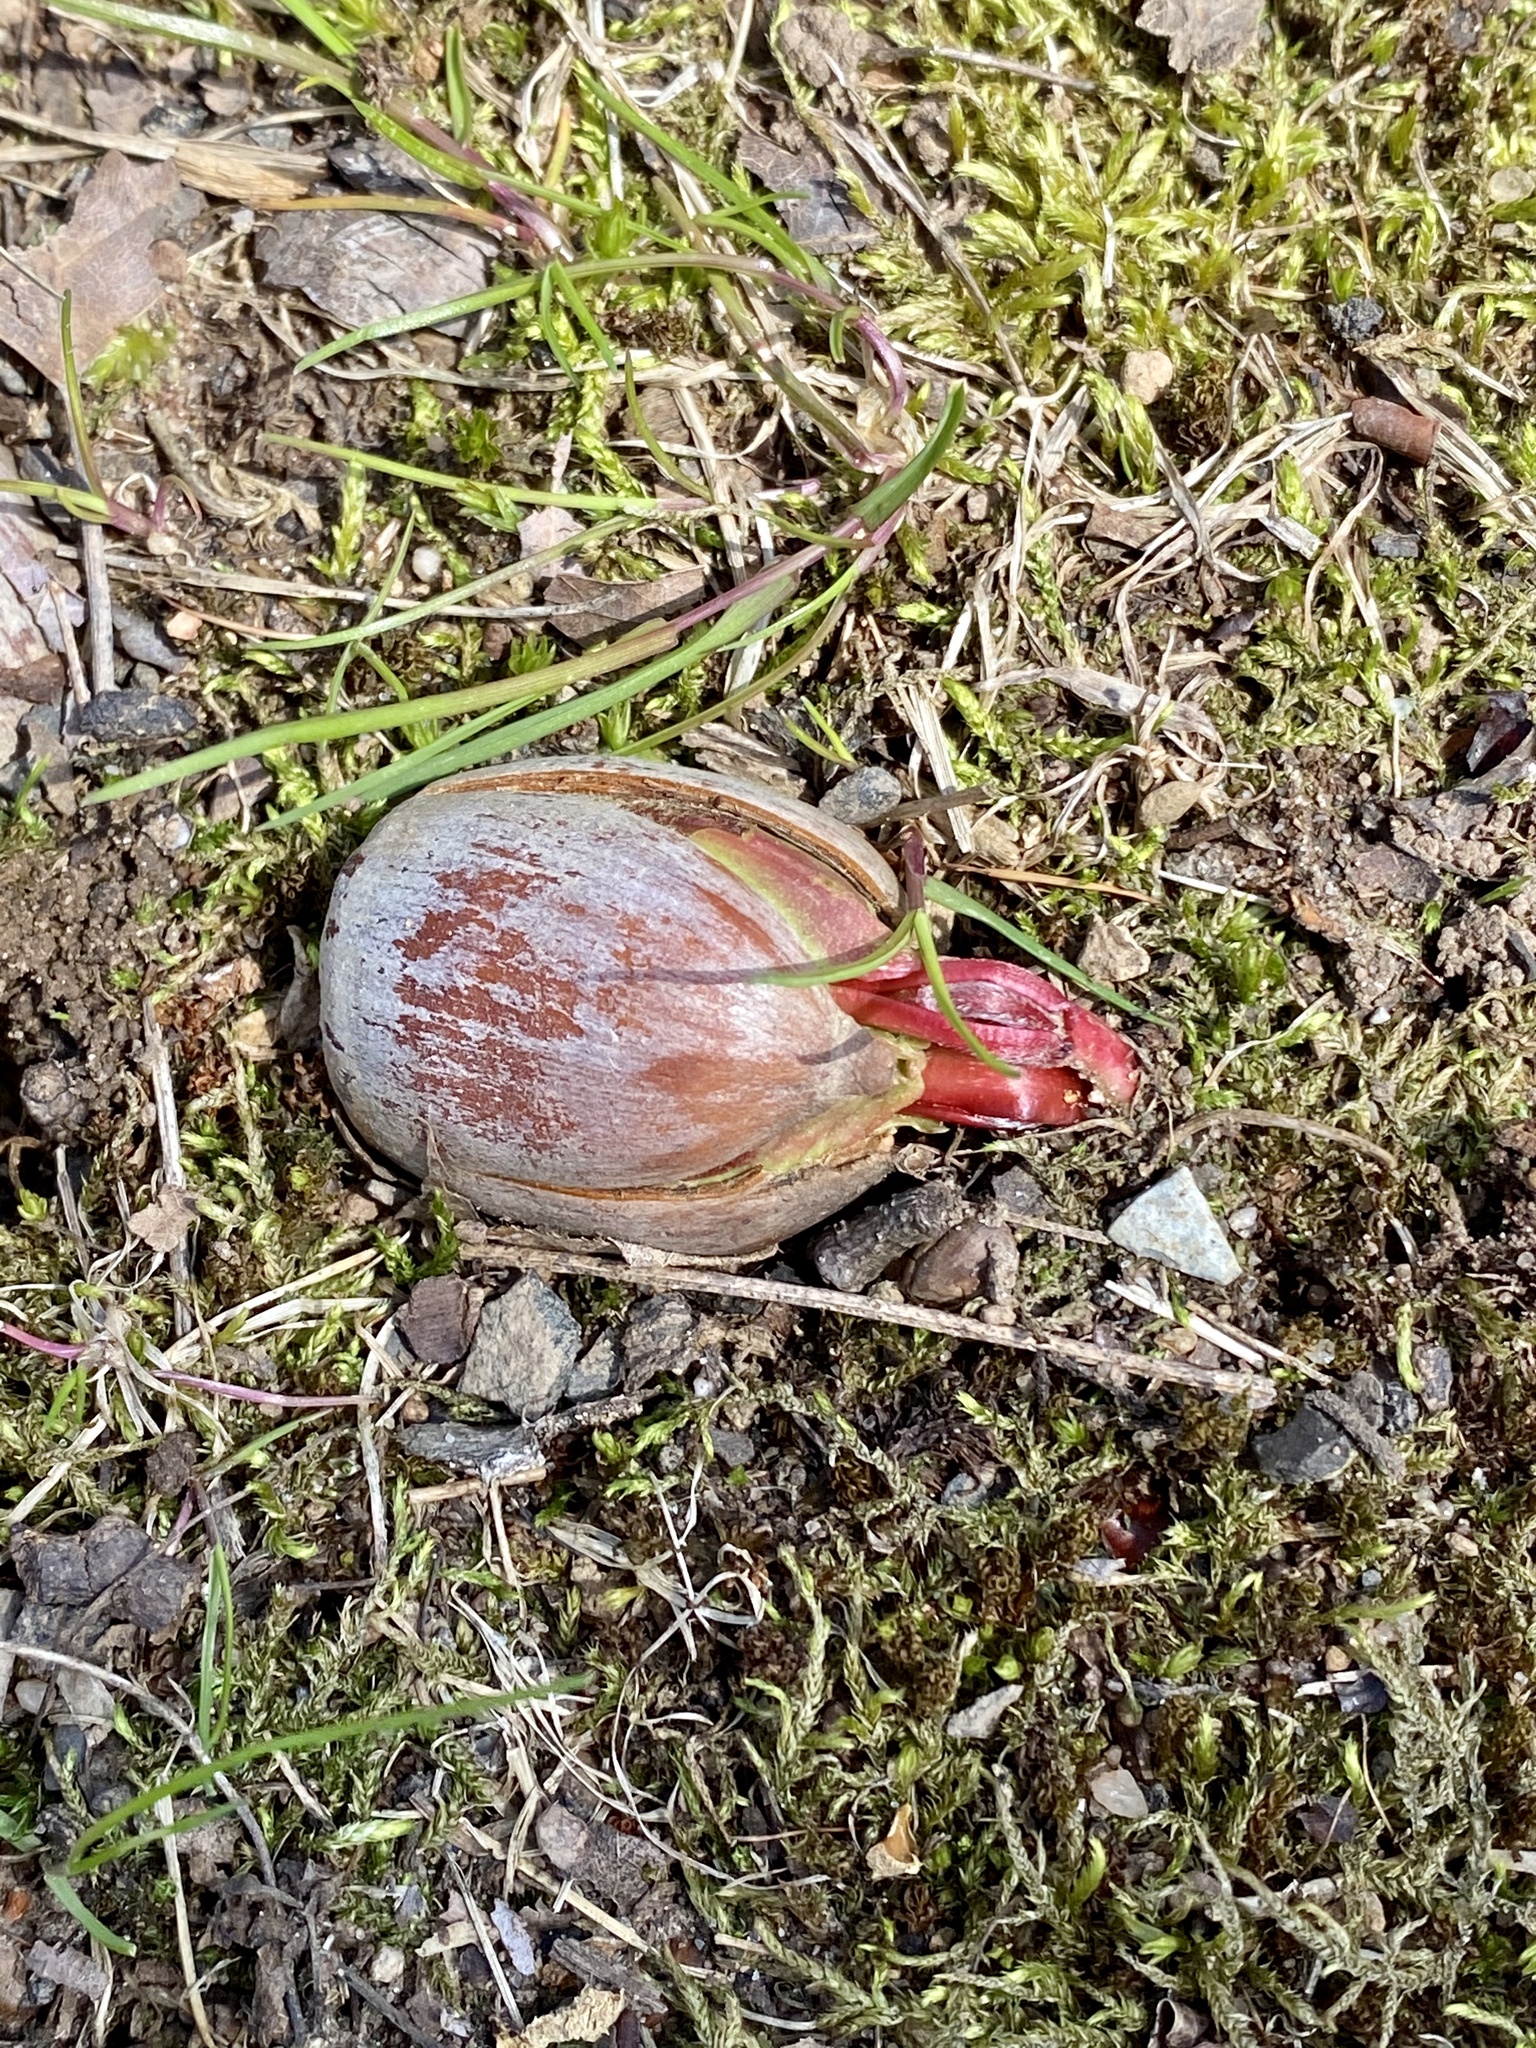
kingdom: Plantae
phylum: Tracheophyta
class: Magnoliopsida
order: Fagales
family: Fagaceae
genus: Quercus
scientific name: Quercus rubra
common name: Red oak
